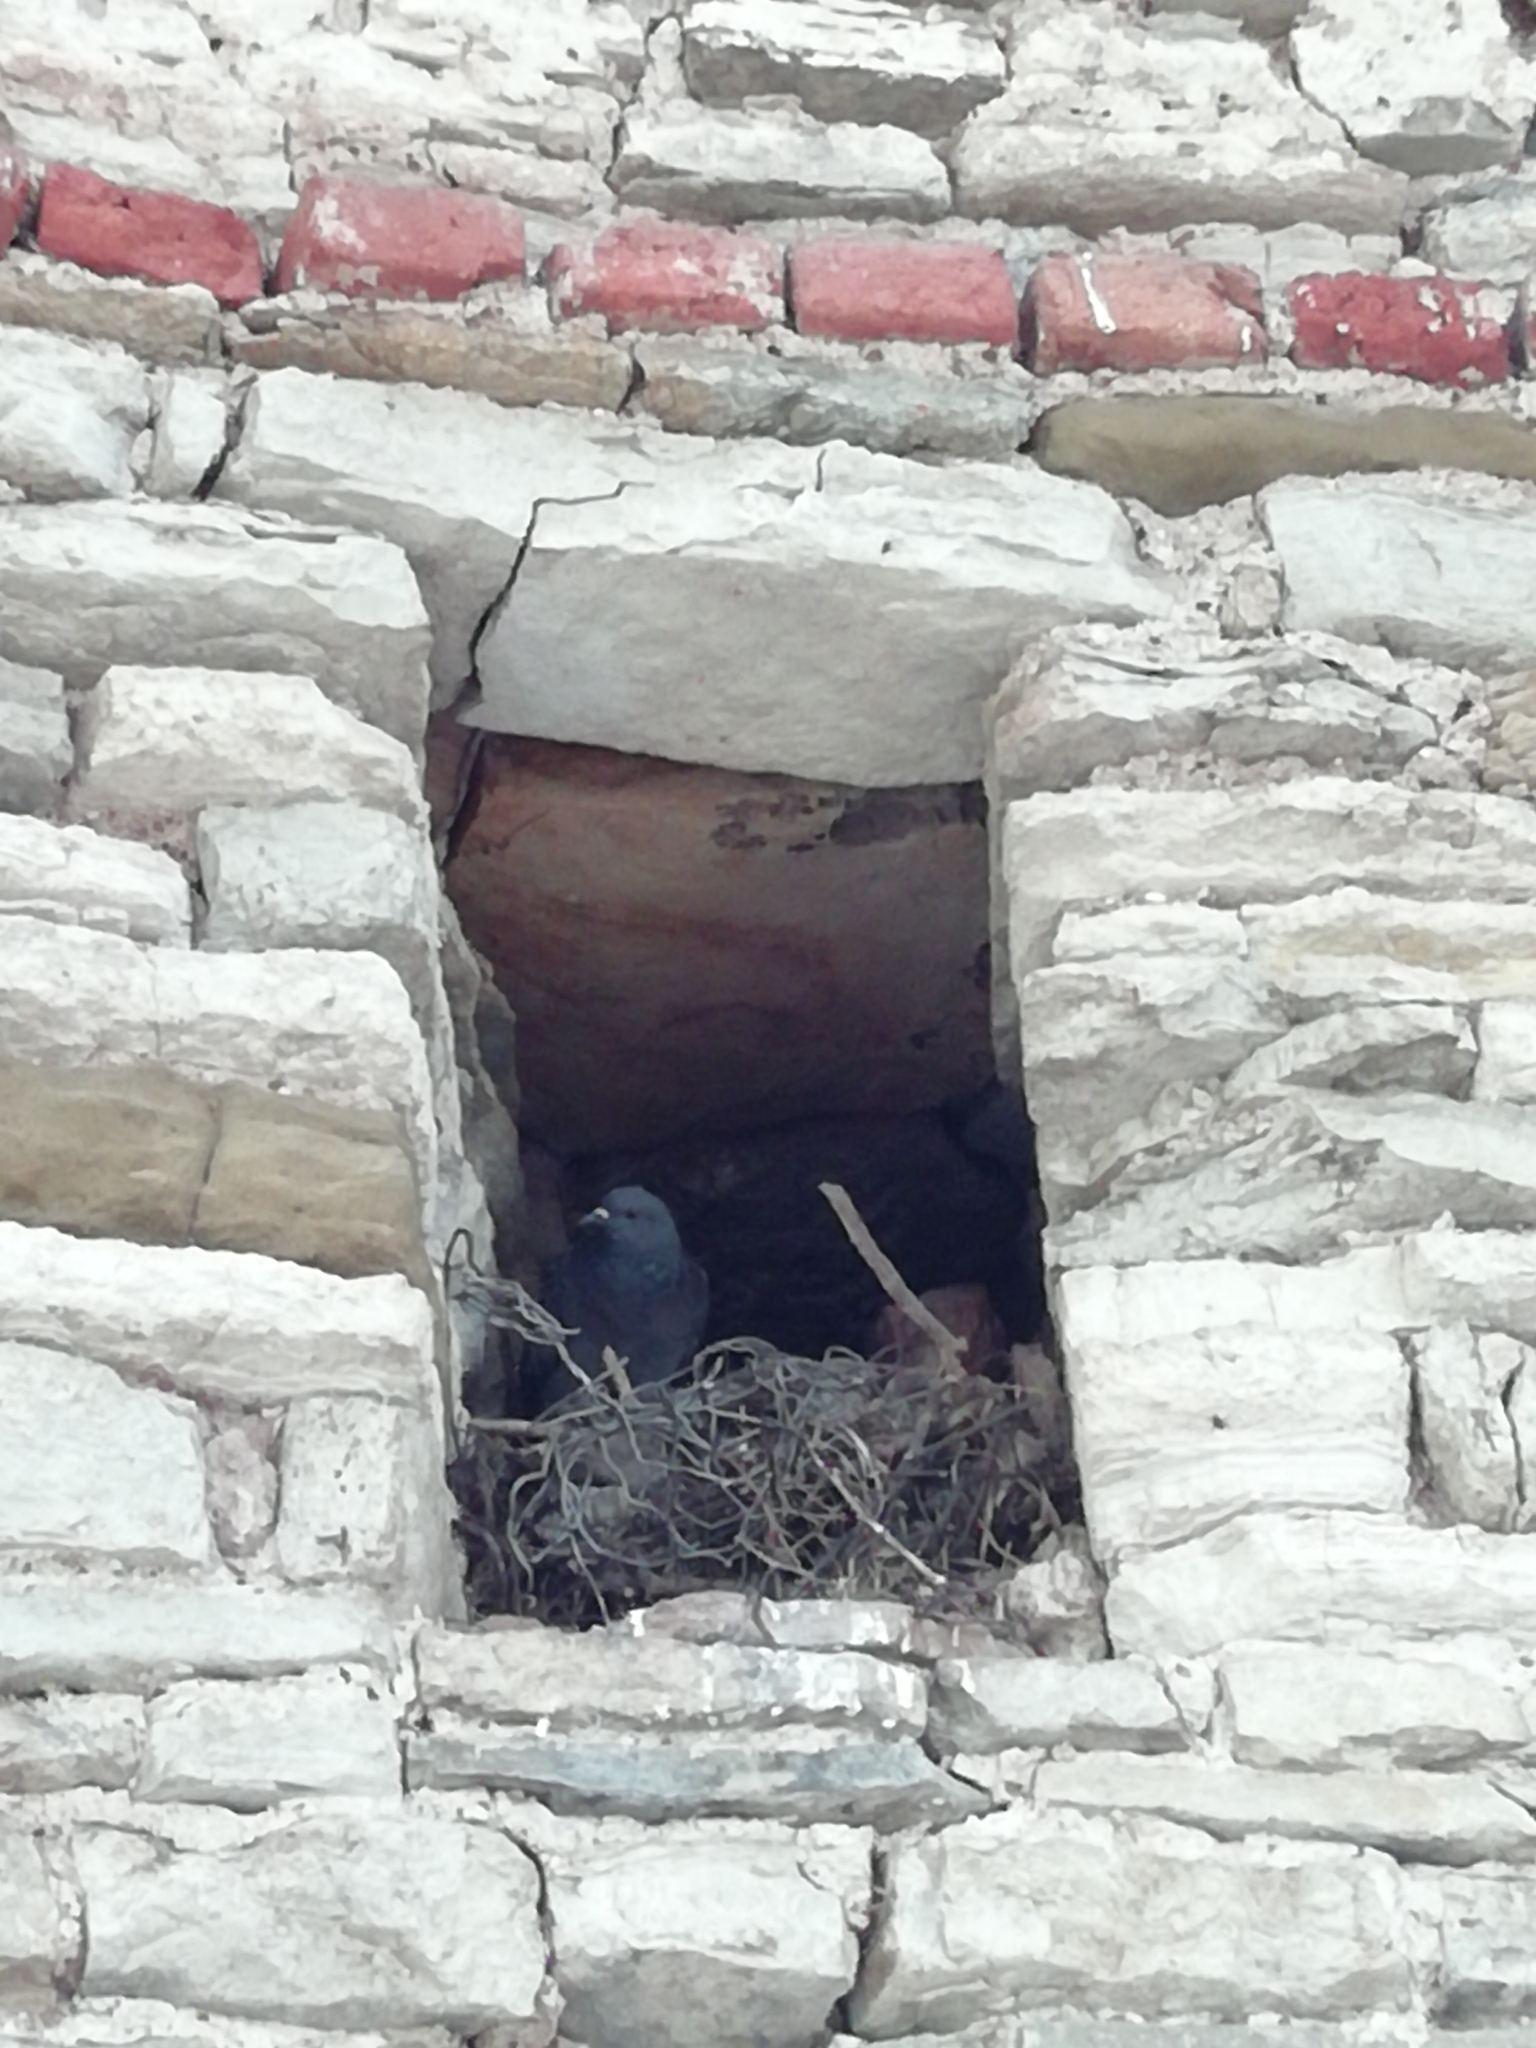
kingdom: Animalia
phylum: Chordata
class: Aves
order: Columbiformes
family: Columbidae
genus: Columba
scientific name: Columba livia
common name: Rock pigeon
